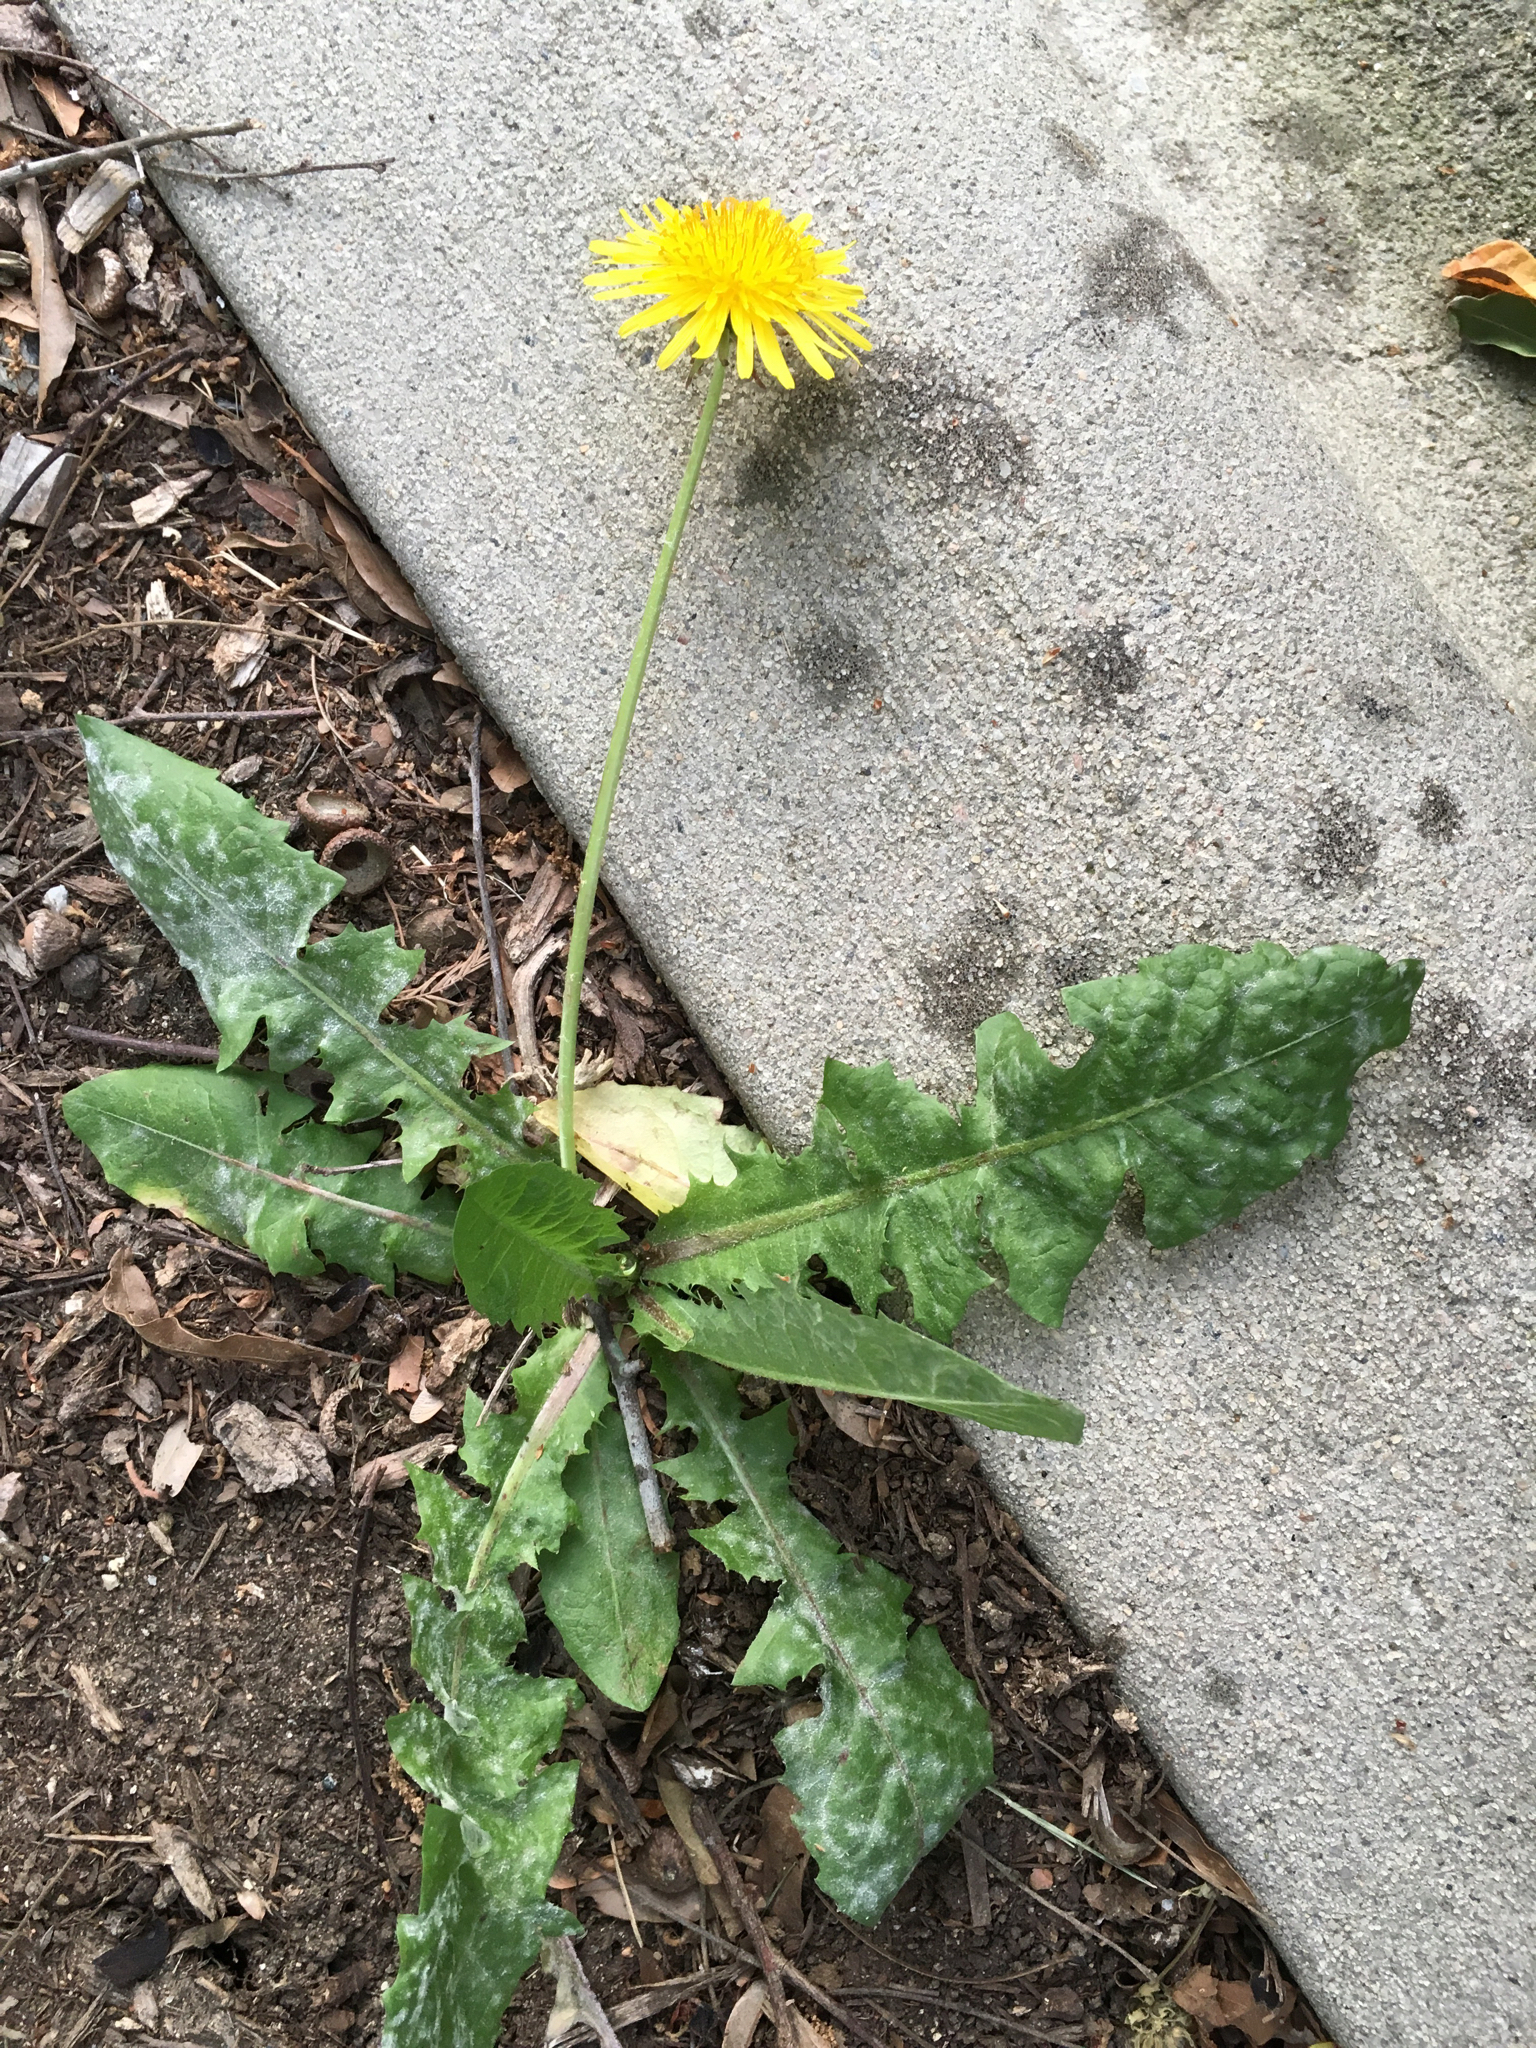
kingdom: Plantae
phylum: Tracheophyta
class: Magnoliopsida
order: Asterales
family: Asteraceae
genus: Taraxacum
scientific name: Taraxacum officinale
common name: Common dandelion
